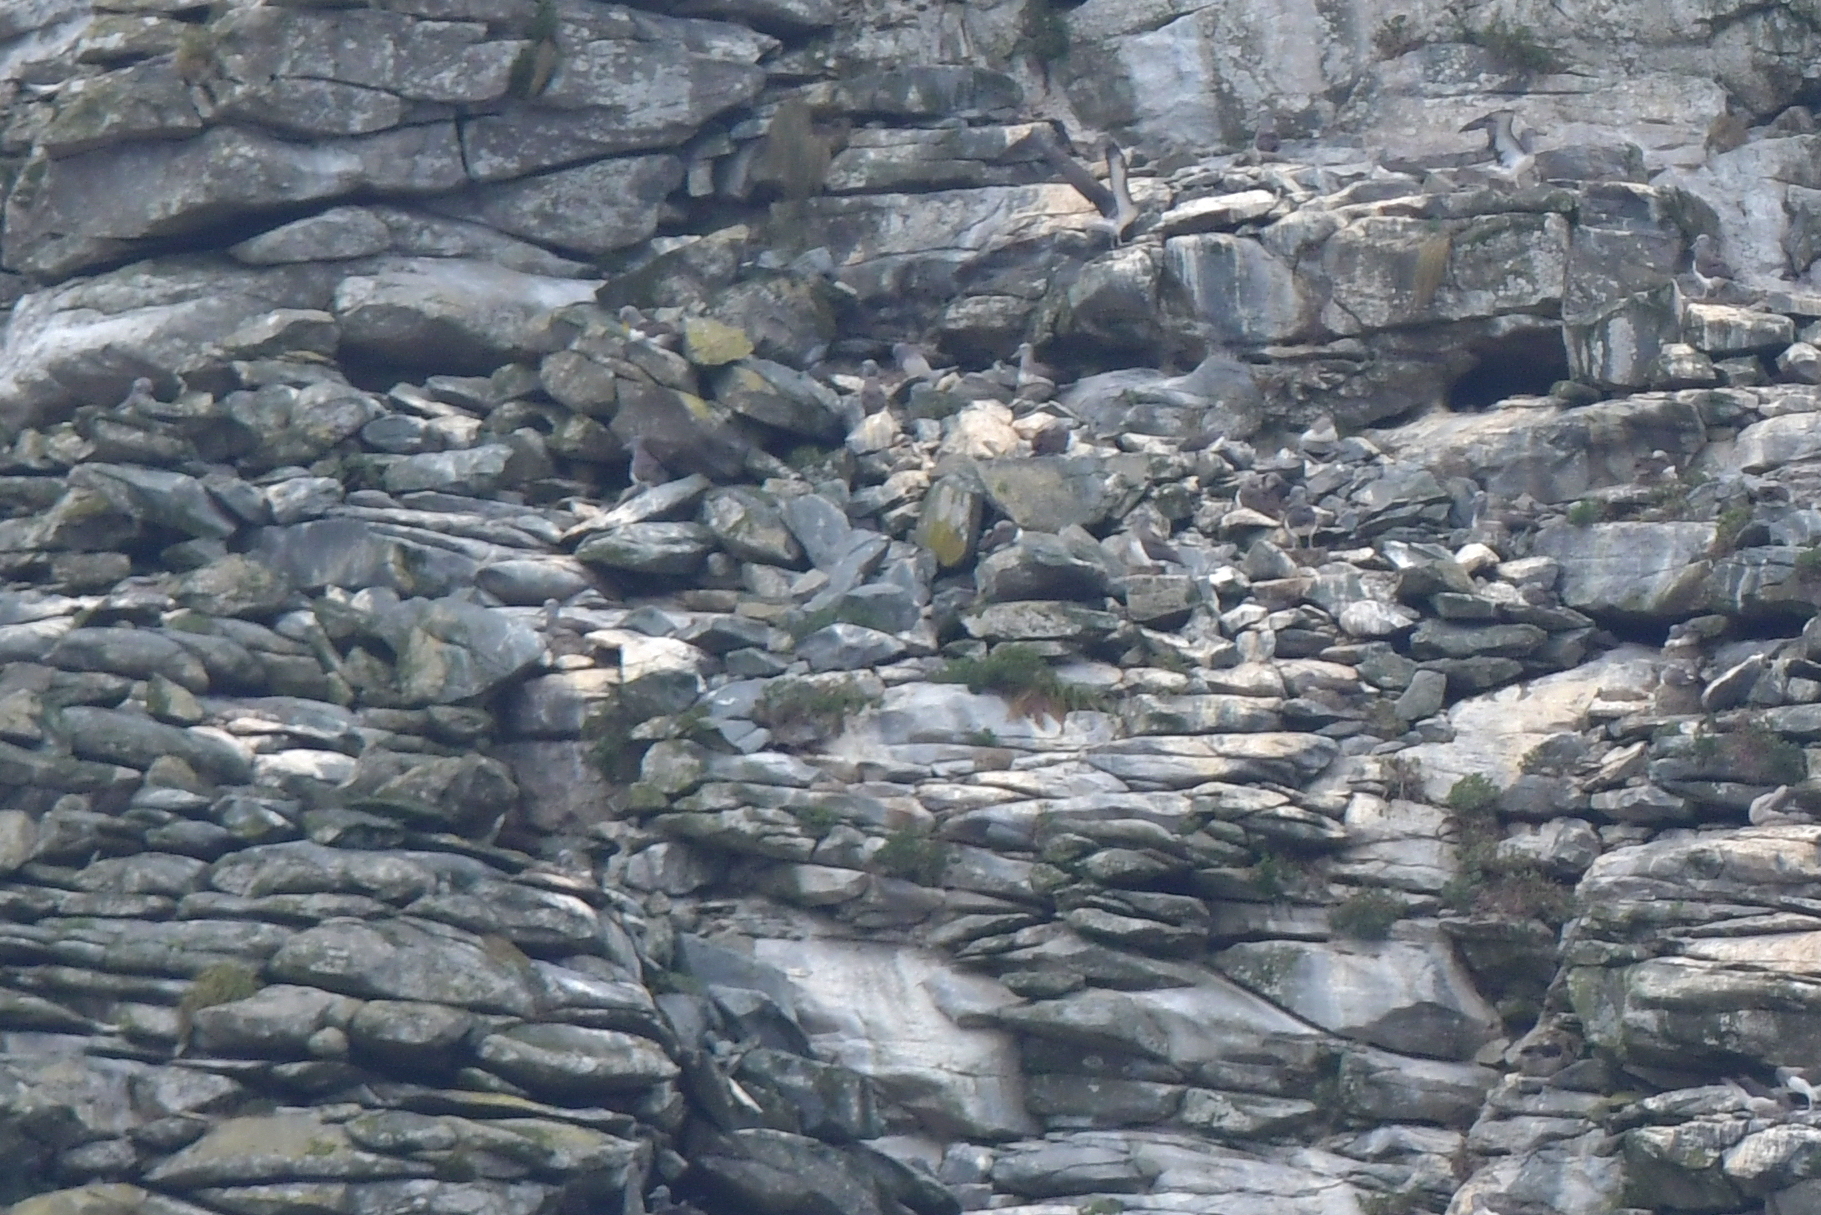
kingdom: Animalia
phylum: Chordata
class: Aves
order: Procellariiformes
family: Diomedeidae
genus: Thalassarche
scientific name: Thalassarche eremita
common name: Chatham albatross
